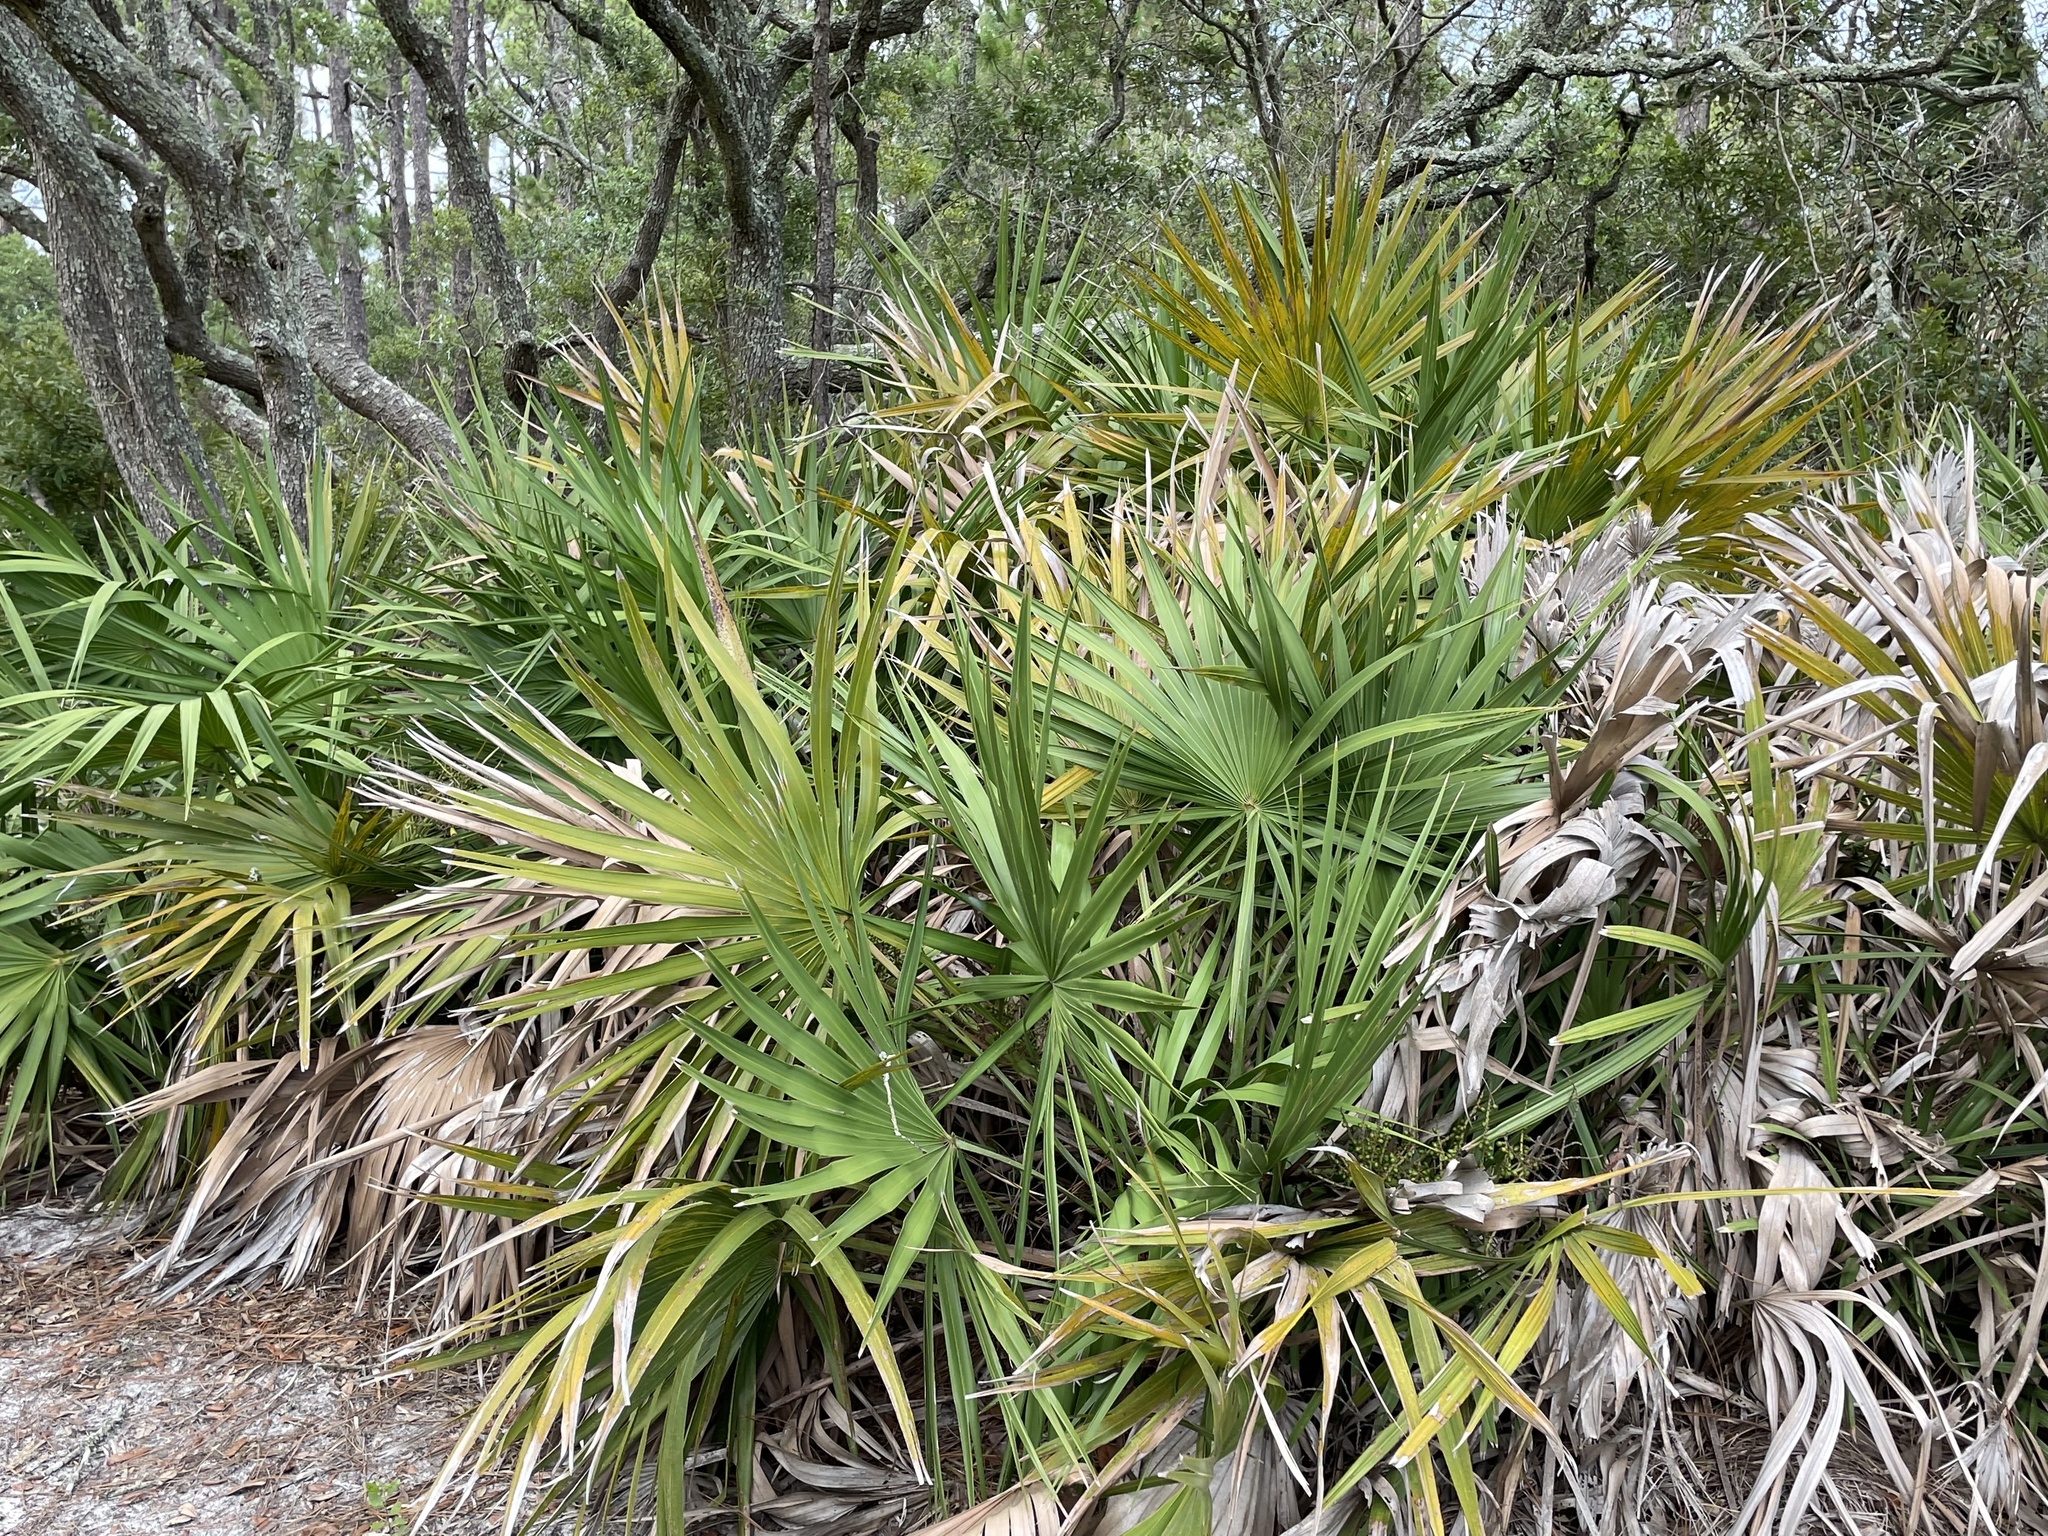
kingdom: Plantae
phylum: Tracheophyta
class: Liliopsida
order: Arecales
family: Arecaceae
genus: Serenoa
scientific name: Serenoa repens
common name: Saw-palmetto
